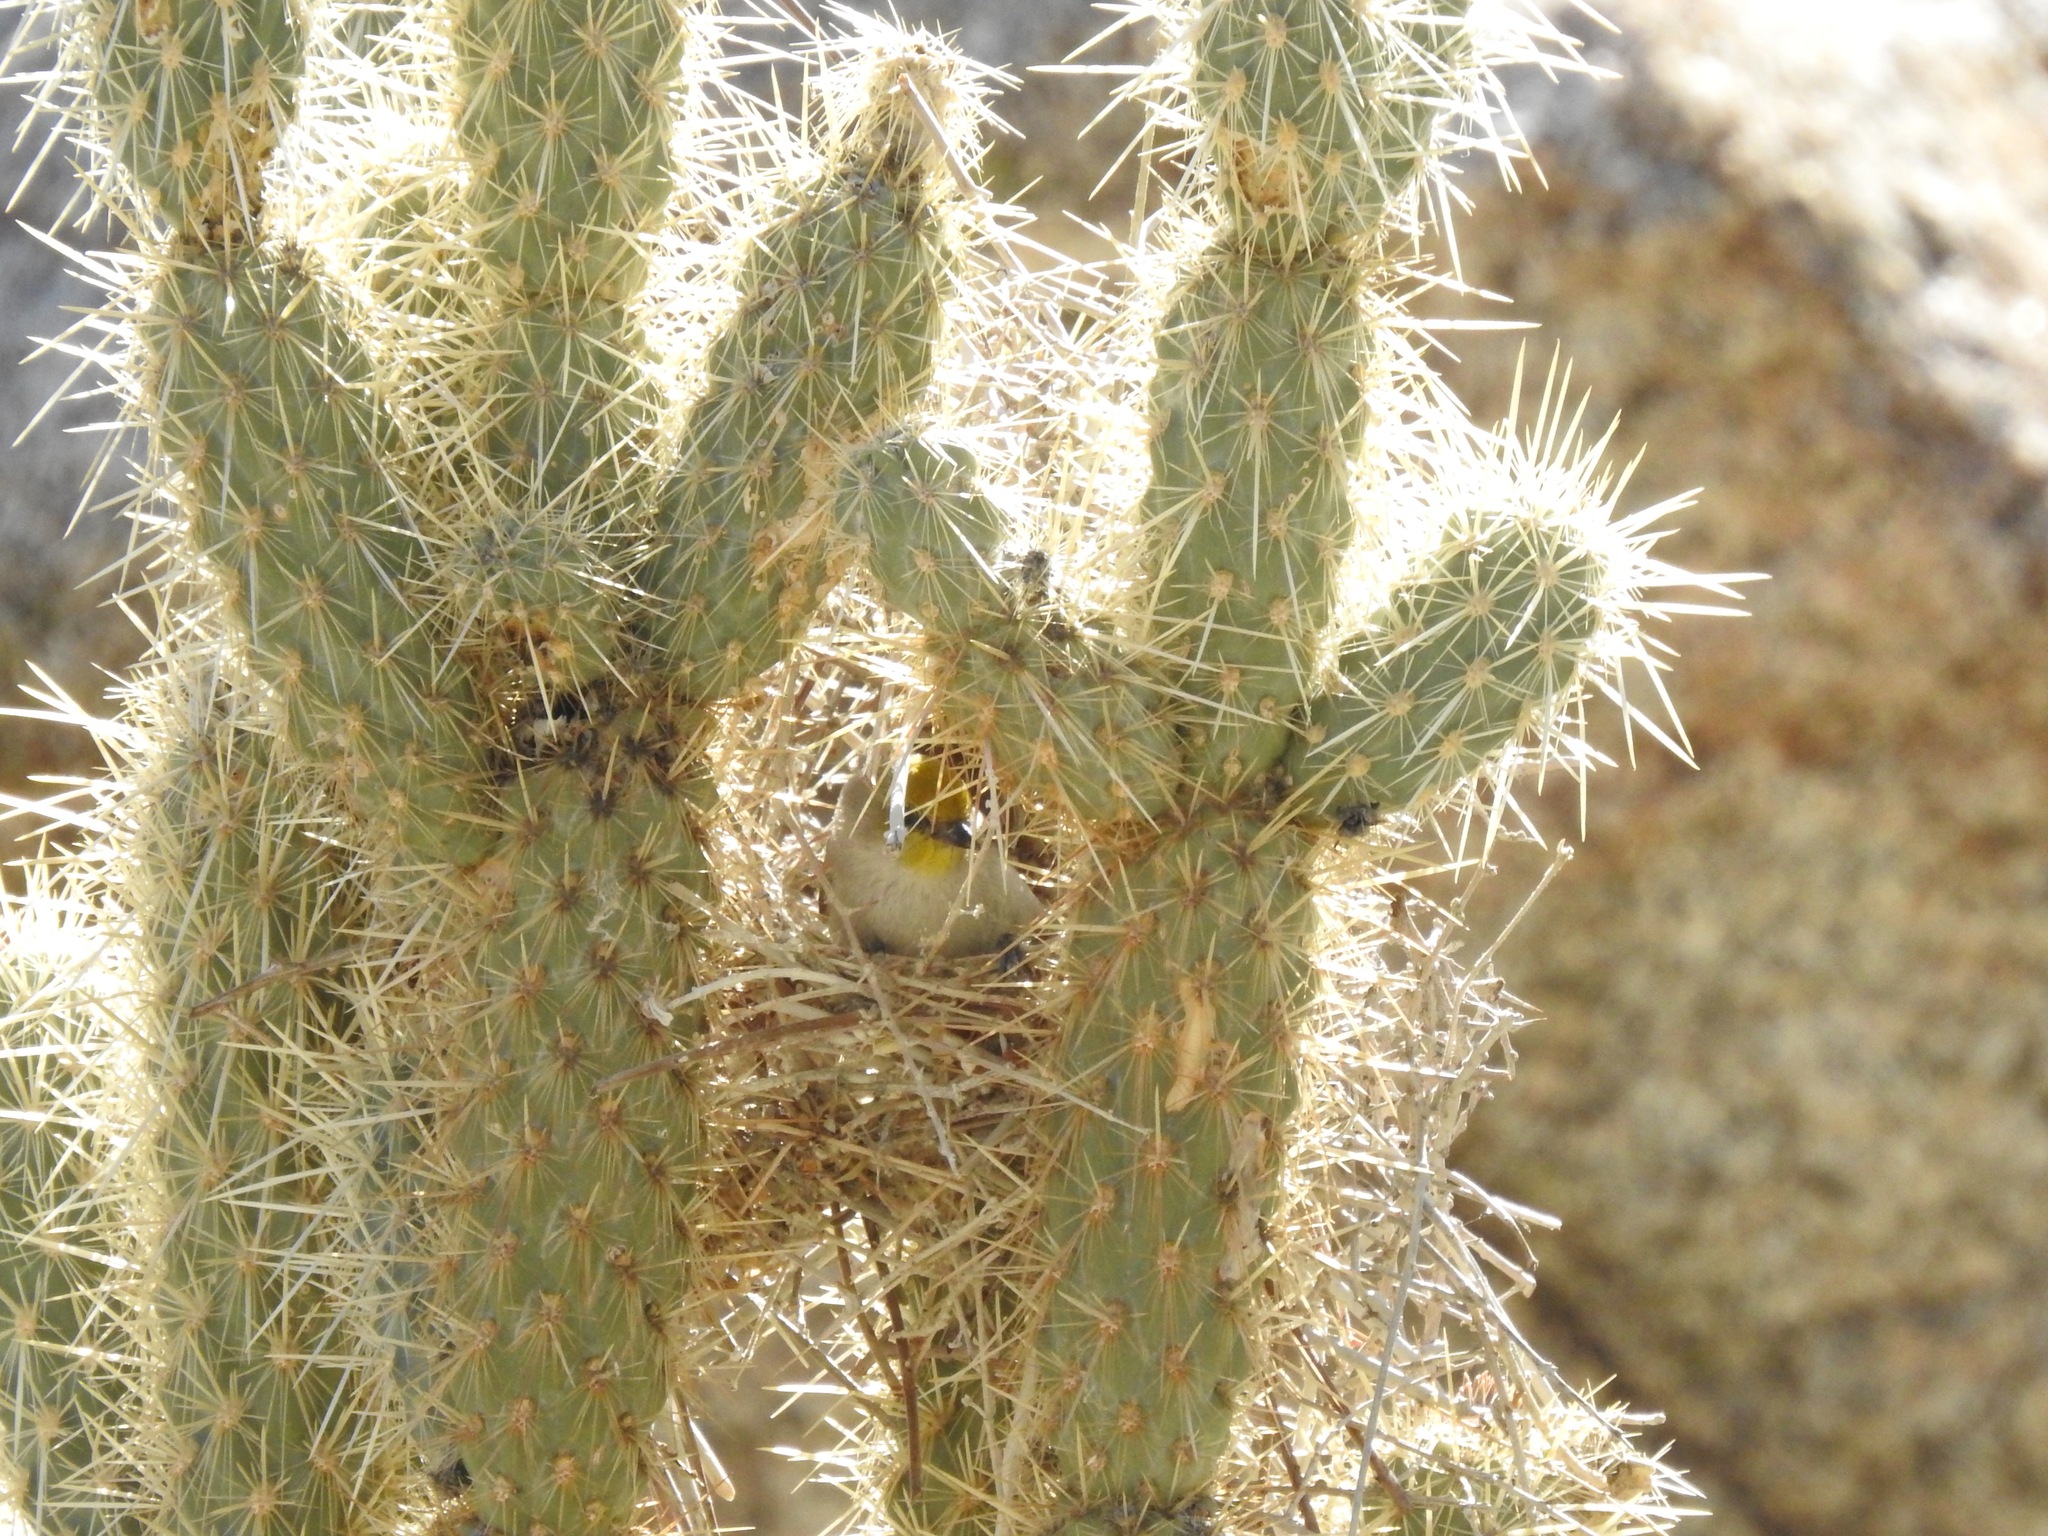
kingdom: Animalia
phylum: Chordata
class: Aves
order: Passeriformes
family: Remizidae
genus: Auriparus
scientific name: Auriparus flaviceps
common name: Verdin
